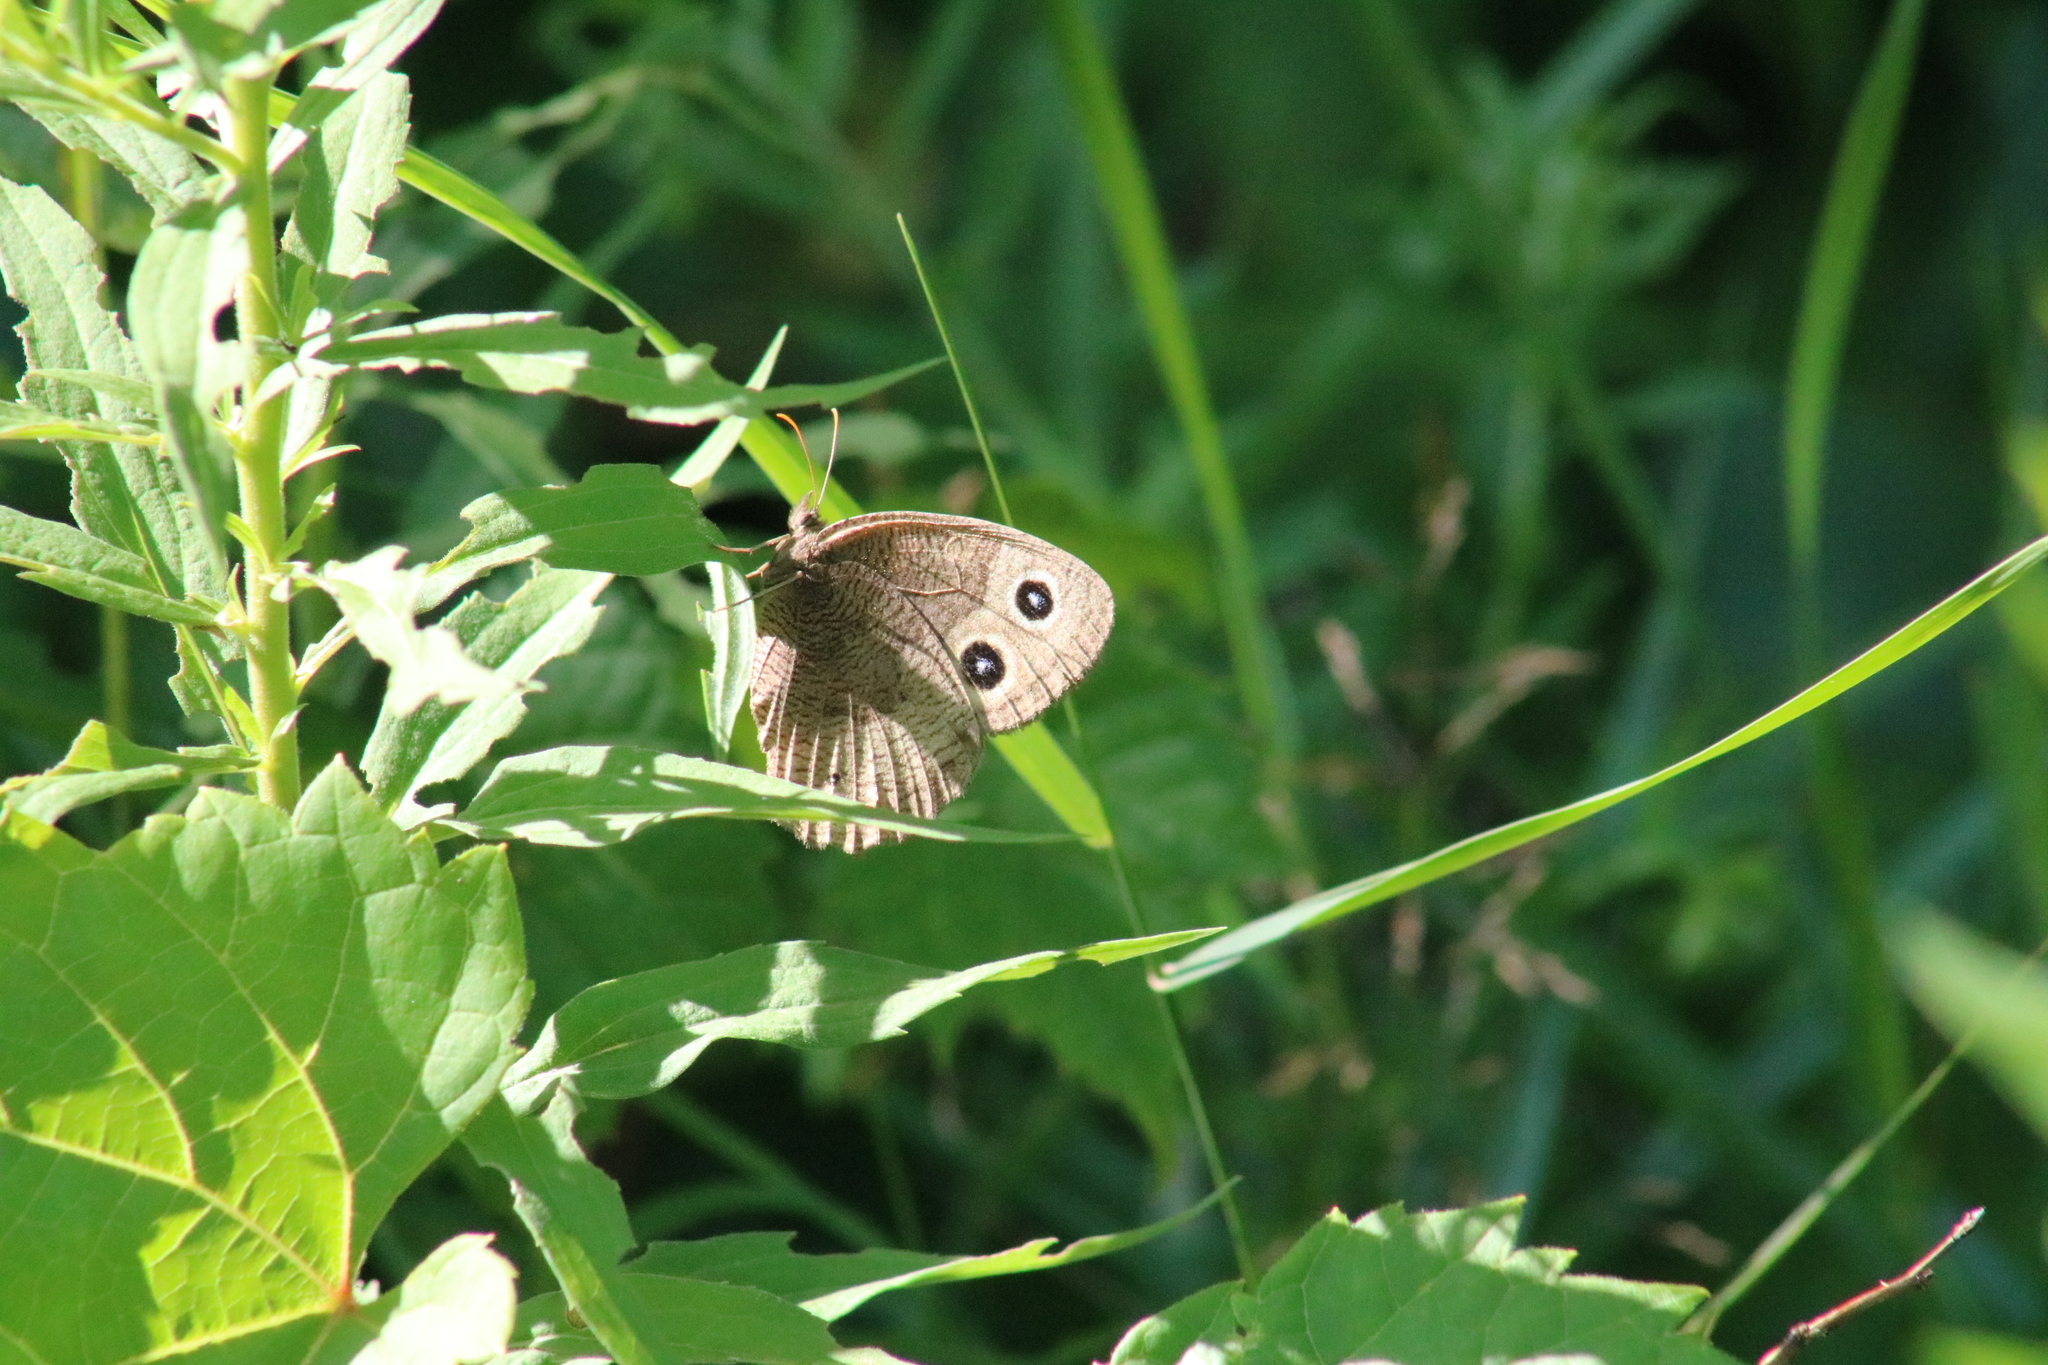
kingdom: Animalia
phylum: Arthropoda
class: Insecta
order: Lepidoptera
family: Nymphalidae
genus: Cercyonis
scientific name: Cercyonis pegala
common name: Common wood-nymph
